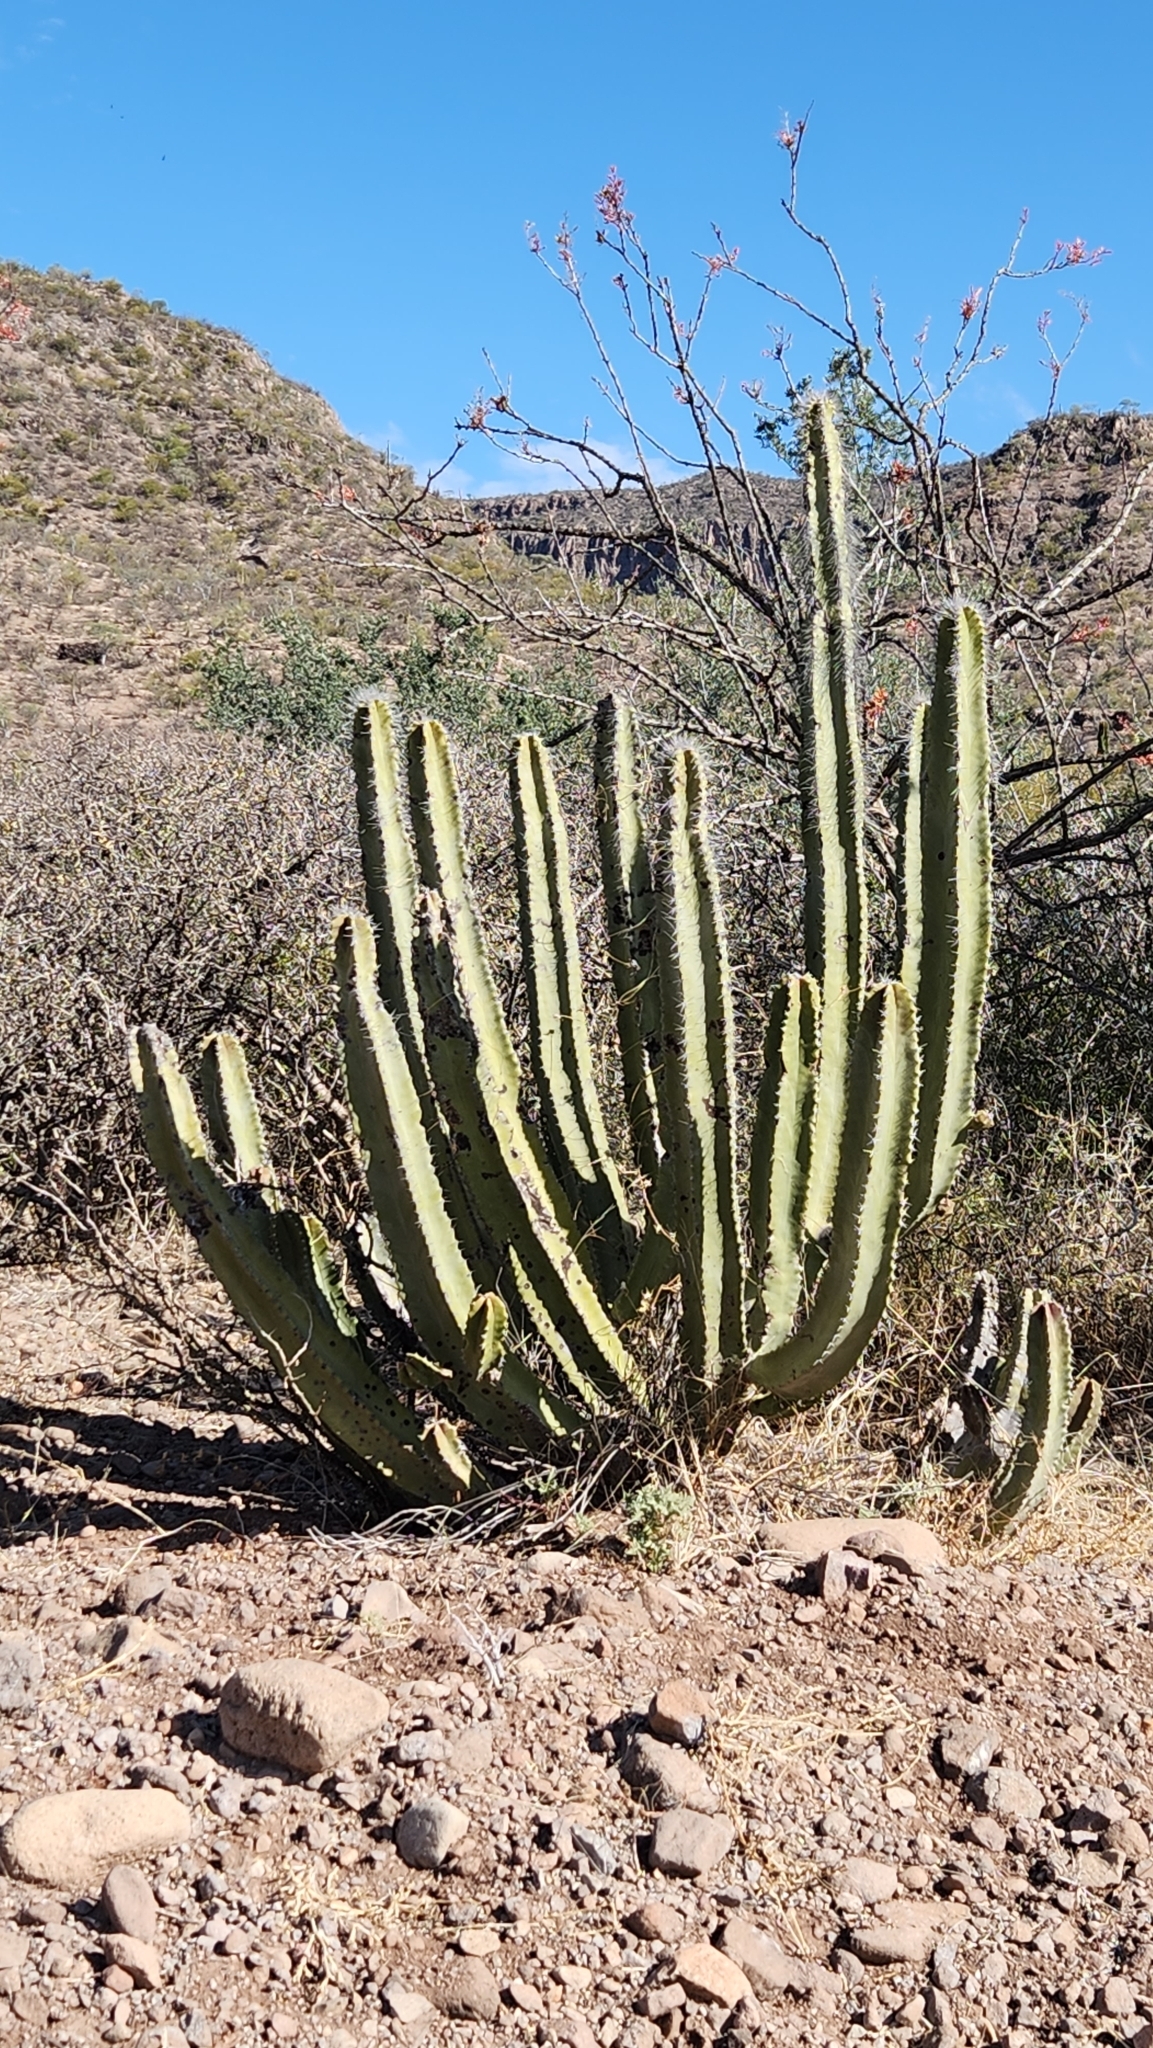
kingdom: Plantae
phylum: Tracheophyta
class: Magnoliopsida
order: Caryophyllales
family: Cactaceae
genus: Pachycereus
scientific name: Pachycereus schottii
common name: Senita cactus
